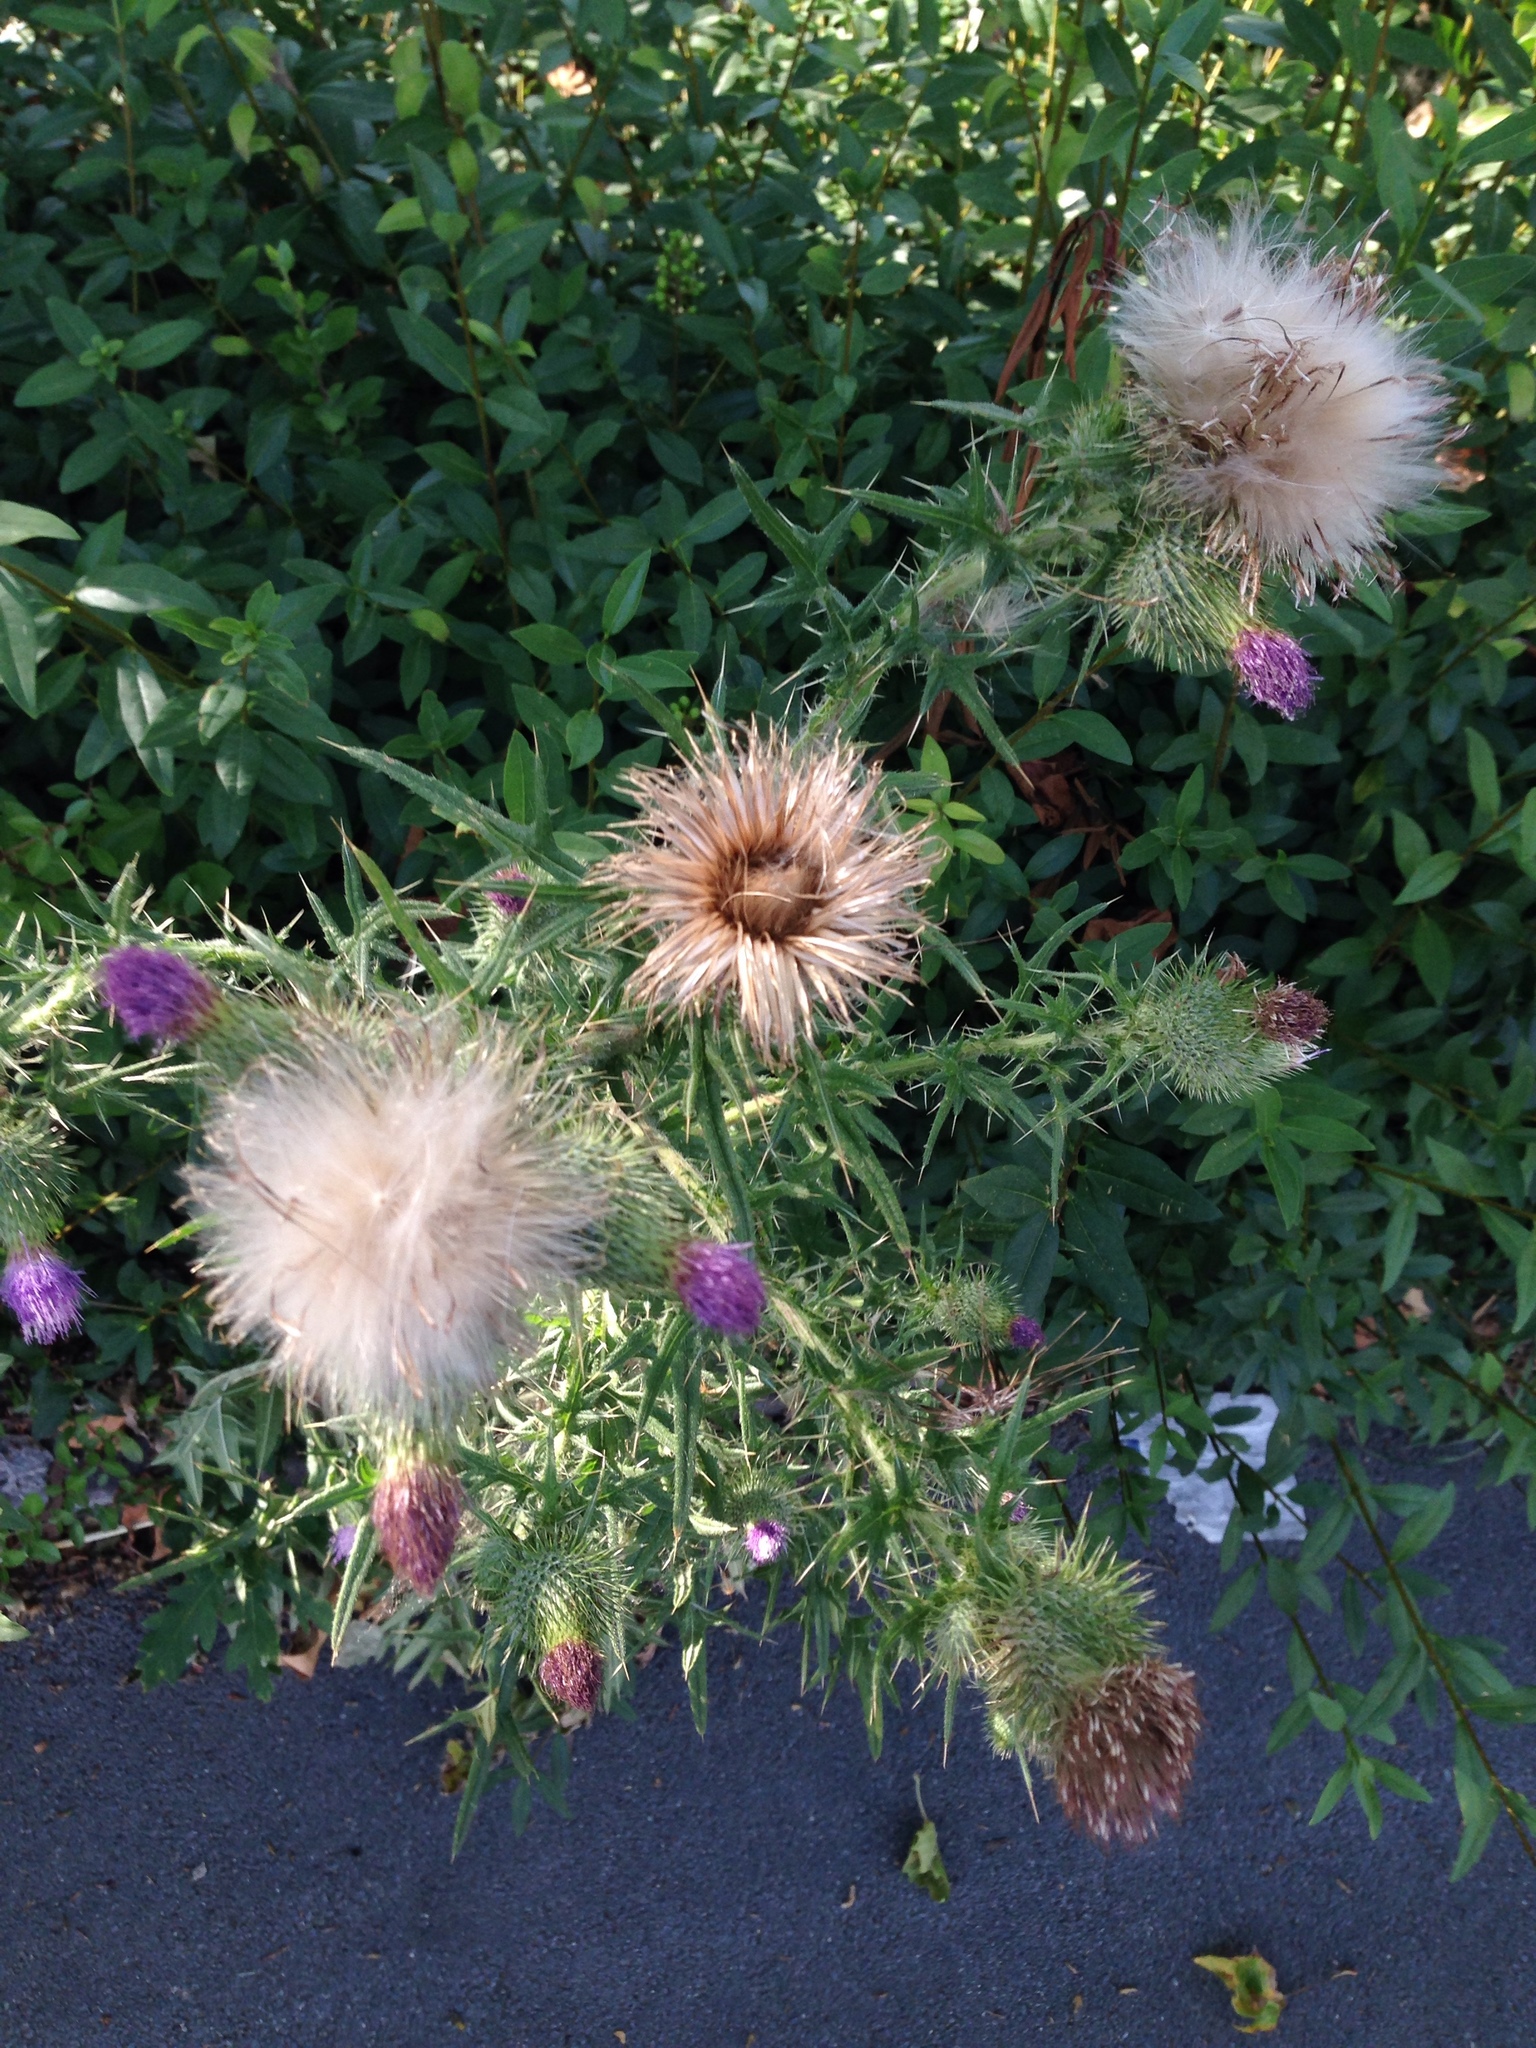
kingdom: Plantae
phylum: Tracheophyta
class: Magnoliopsida
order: Asterales
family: Asteraceae
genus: Cirsium
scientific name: Cirsium vulgare
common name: Bull thistle
